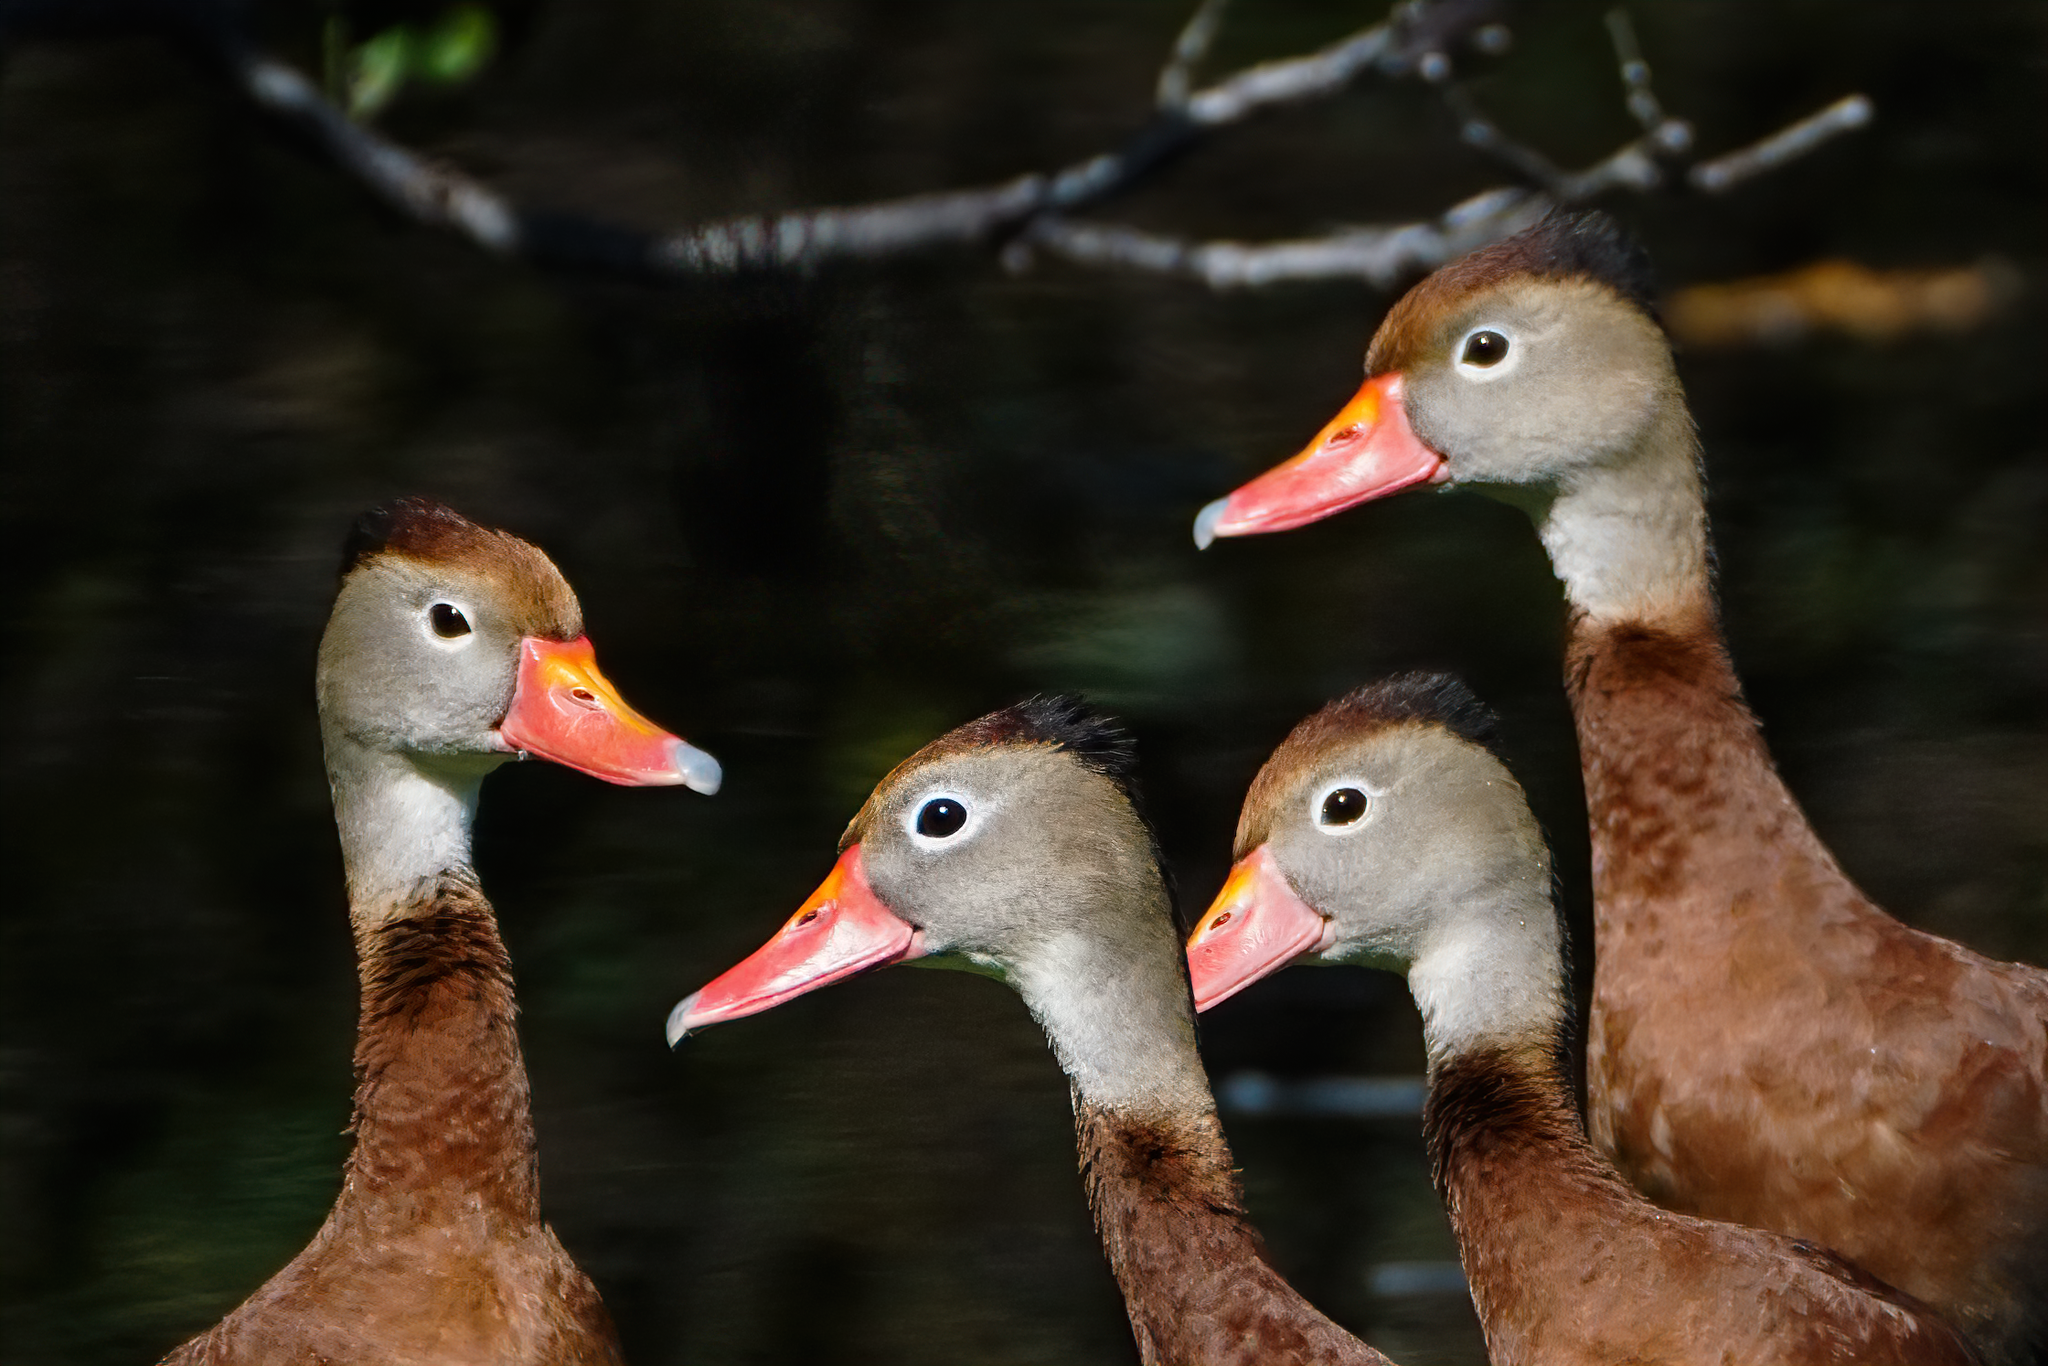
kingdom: Animalia
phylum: Chordata
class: Aves
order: Anseriformes
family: Anatidae
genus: Dendrocygna
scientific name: Dendrocygna autumnalis
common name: Black-bellied whistling duck
